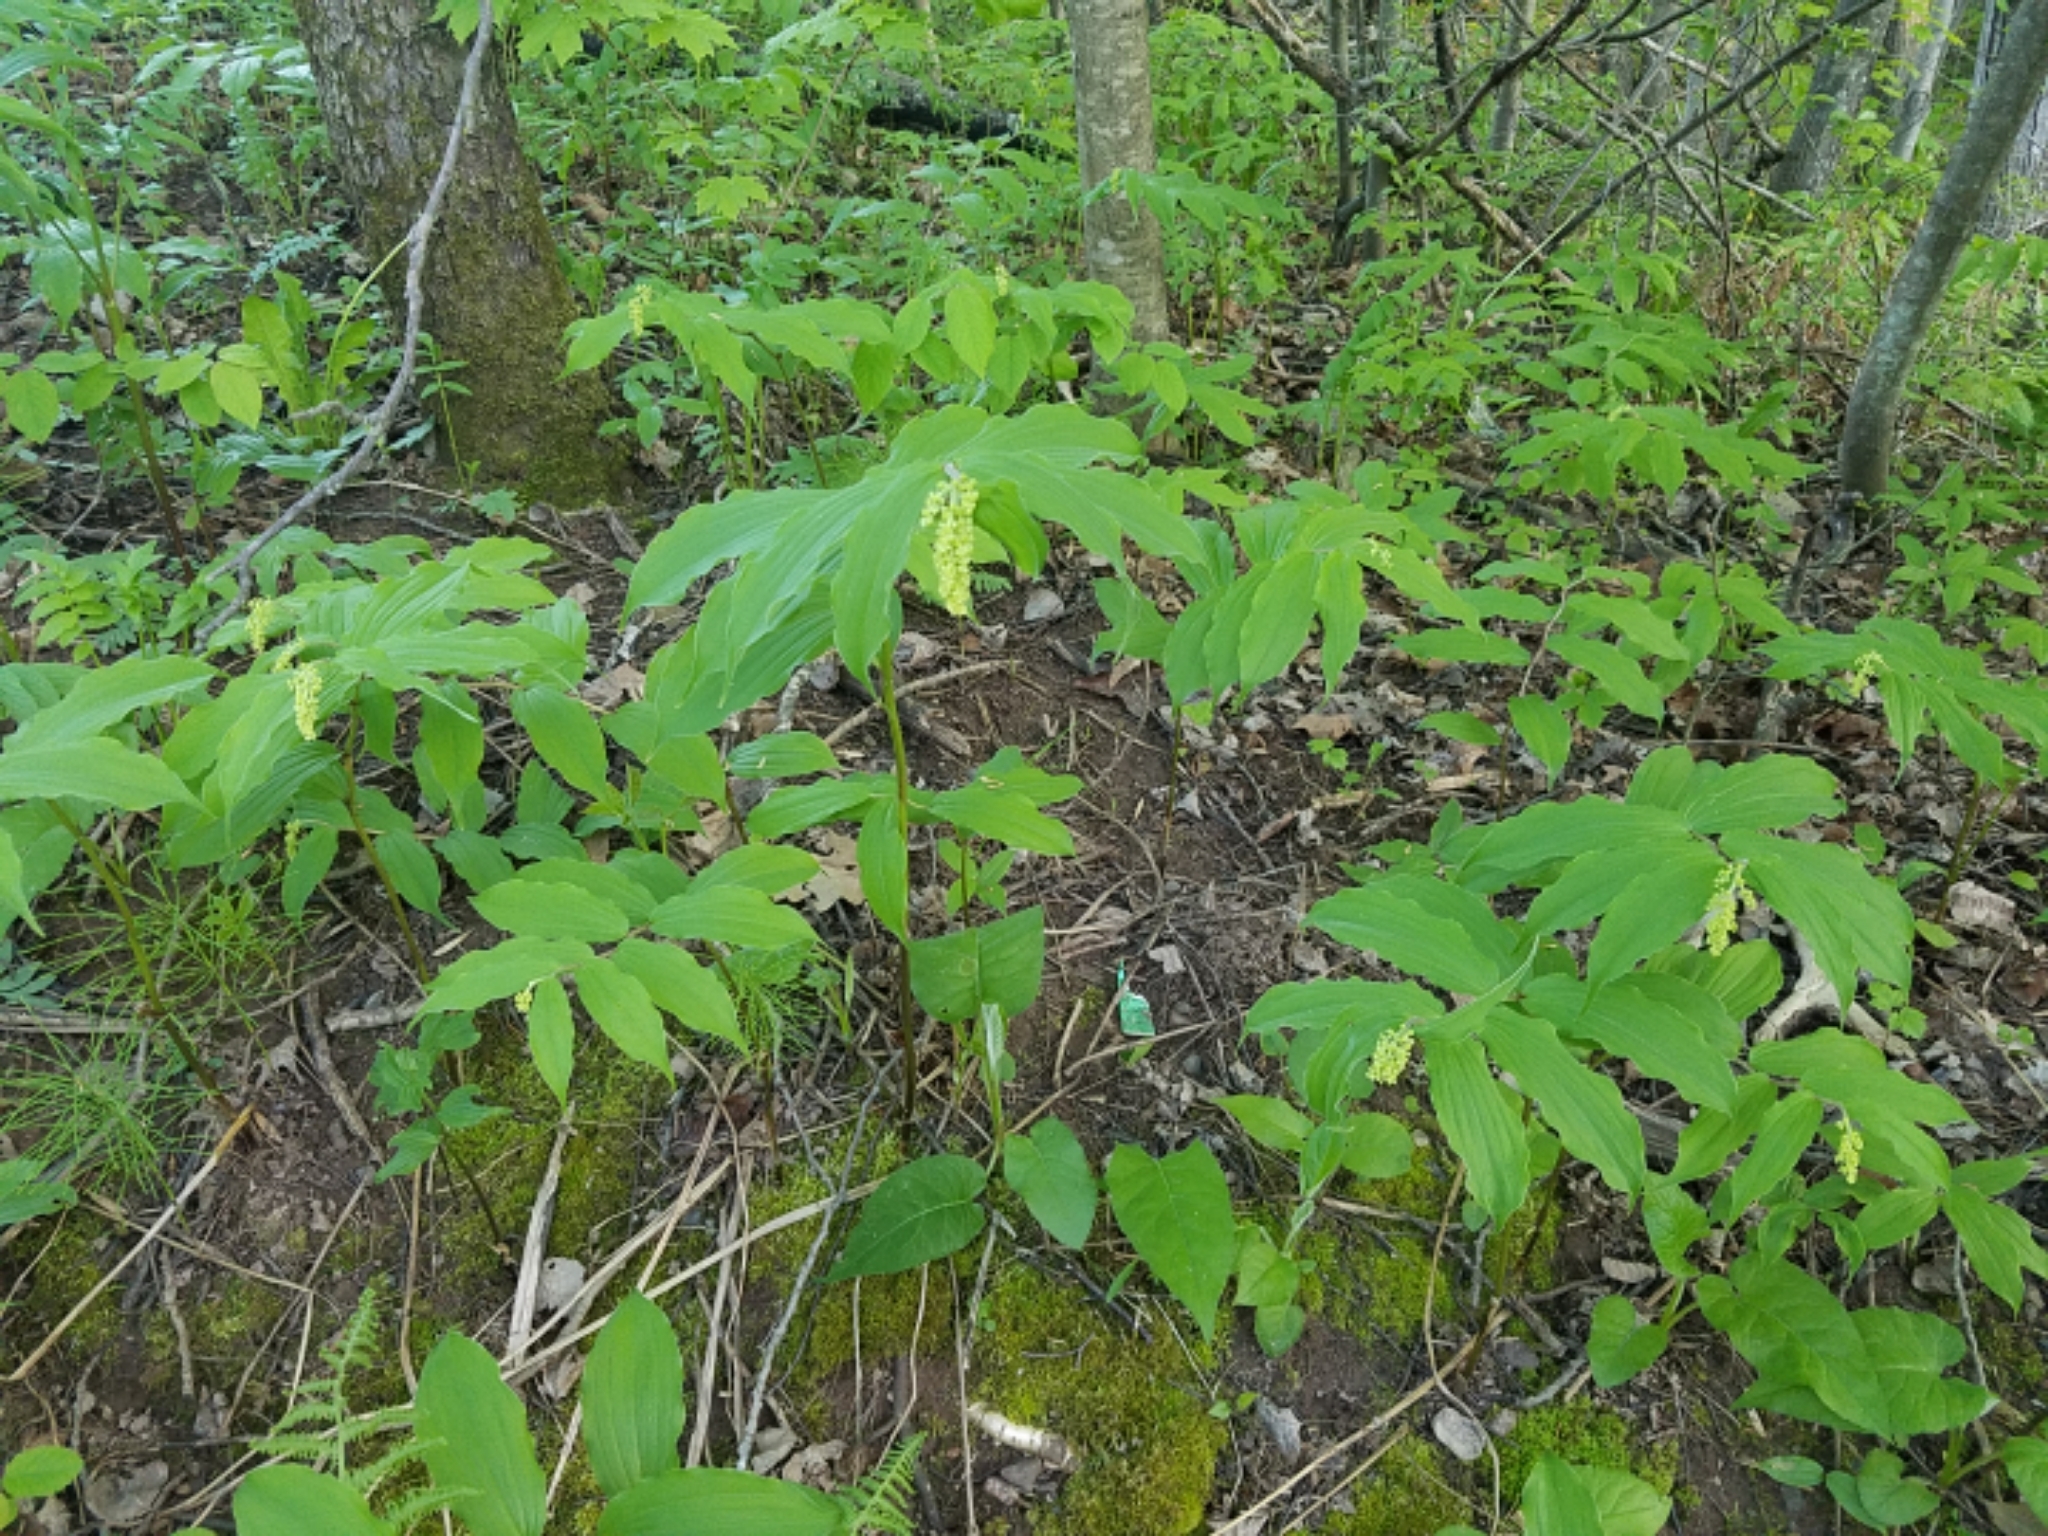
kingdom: Plantae
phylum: Tracheophyta
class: Liliopsida
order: Asparagales
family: Asparagaceae
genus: Maianthemum
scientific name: Maianthemum racemosum
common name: False spikenard
